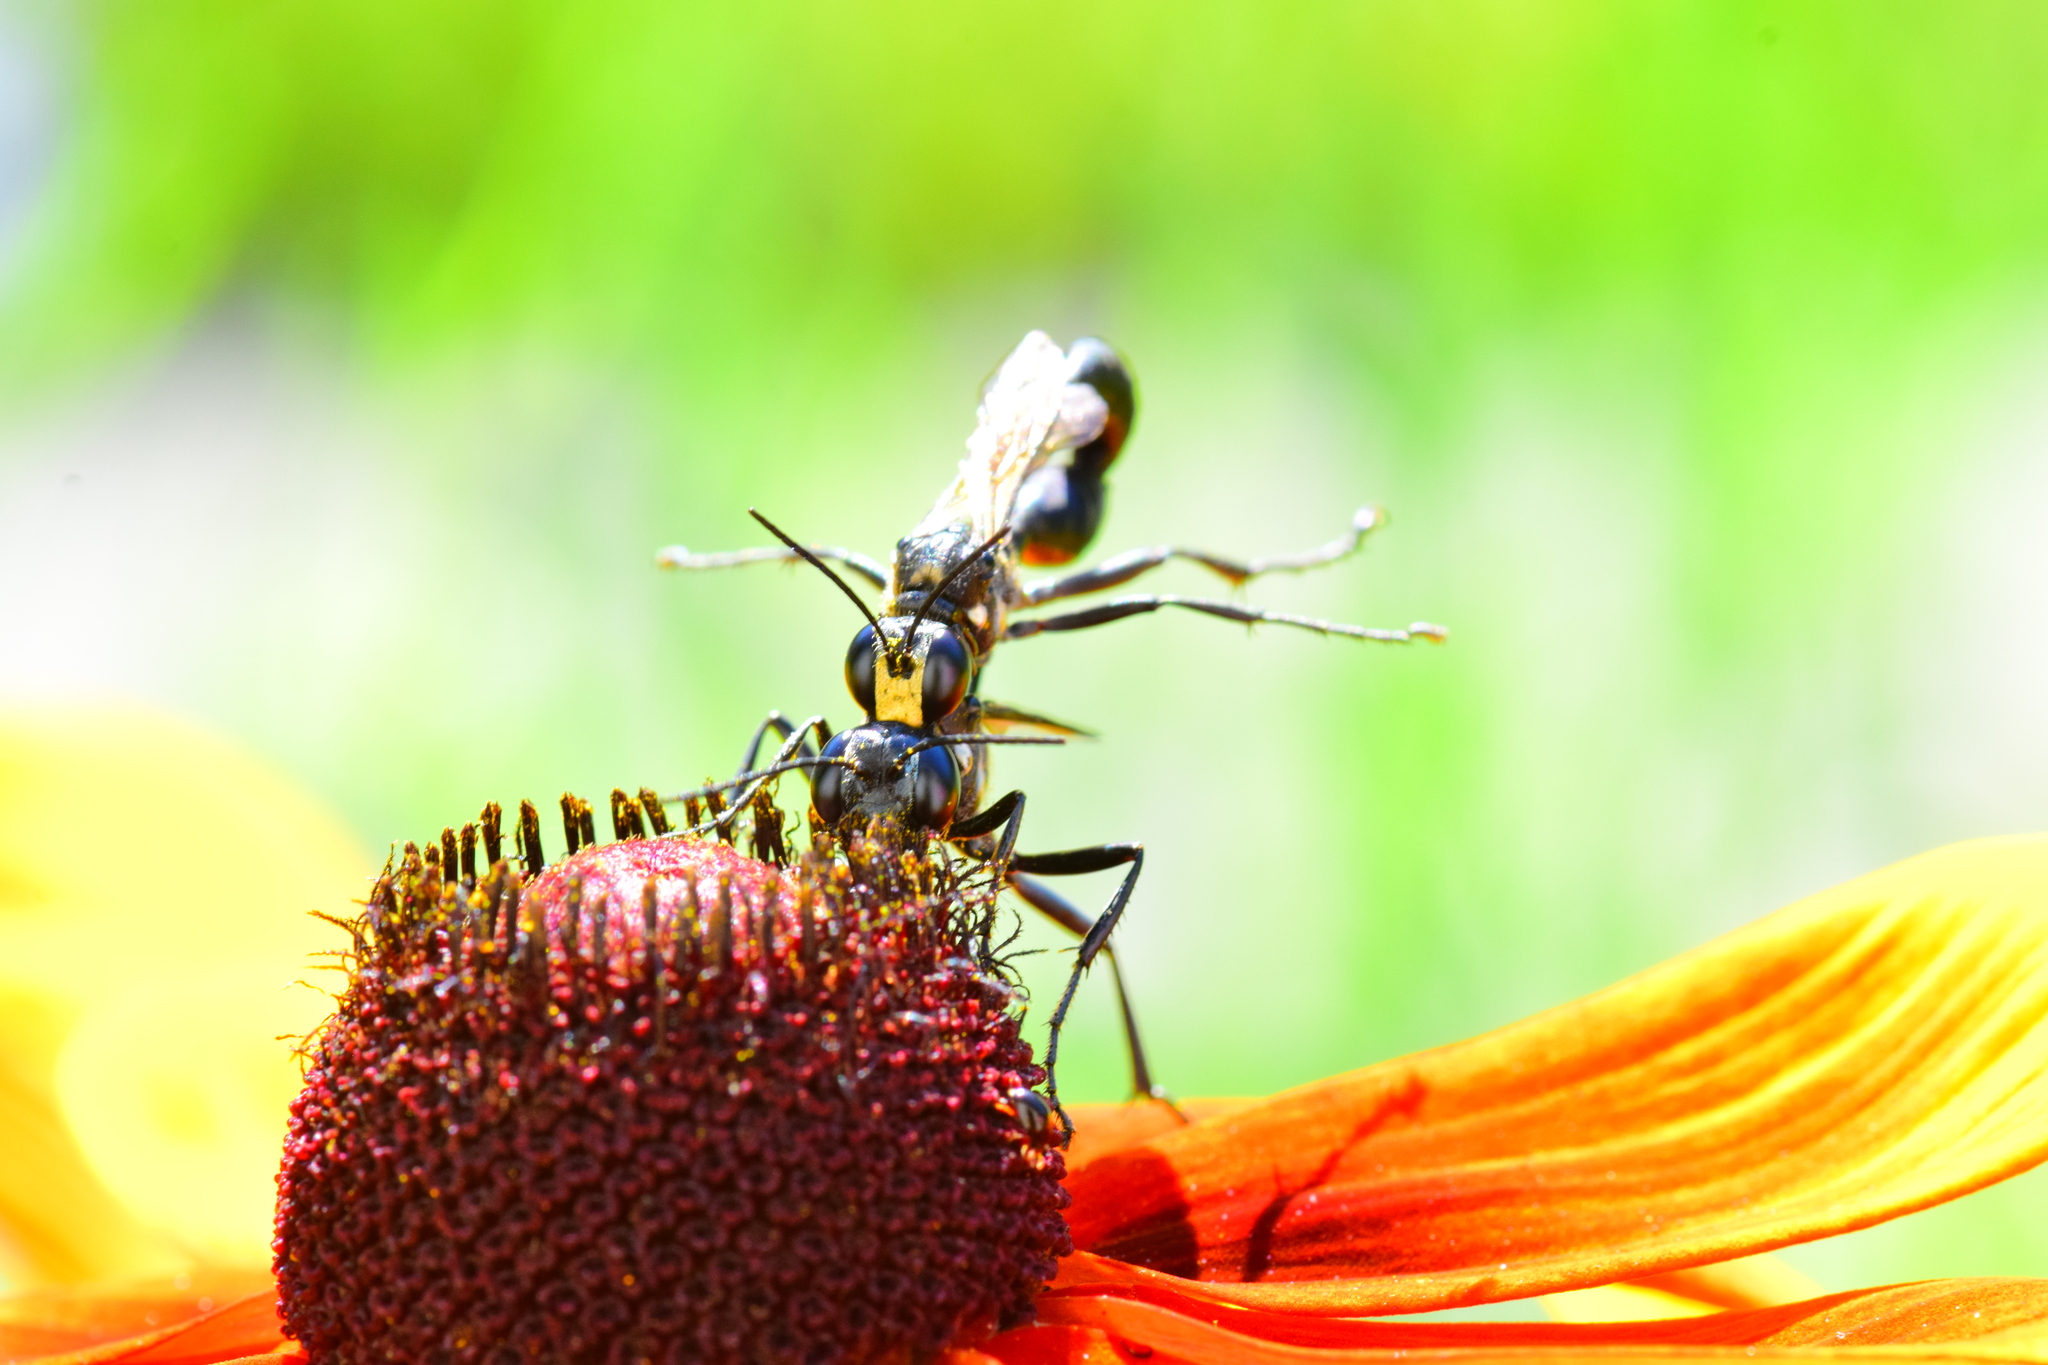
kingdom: Animalia
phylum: Arthropoda
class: Insecta
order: Hymenoptera
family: Sphecidae
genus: Eremnophila
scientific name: Eremnophila aureonotata
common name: Gold-marked thread-waisted wasp
